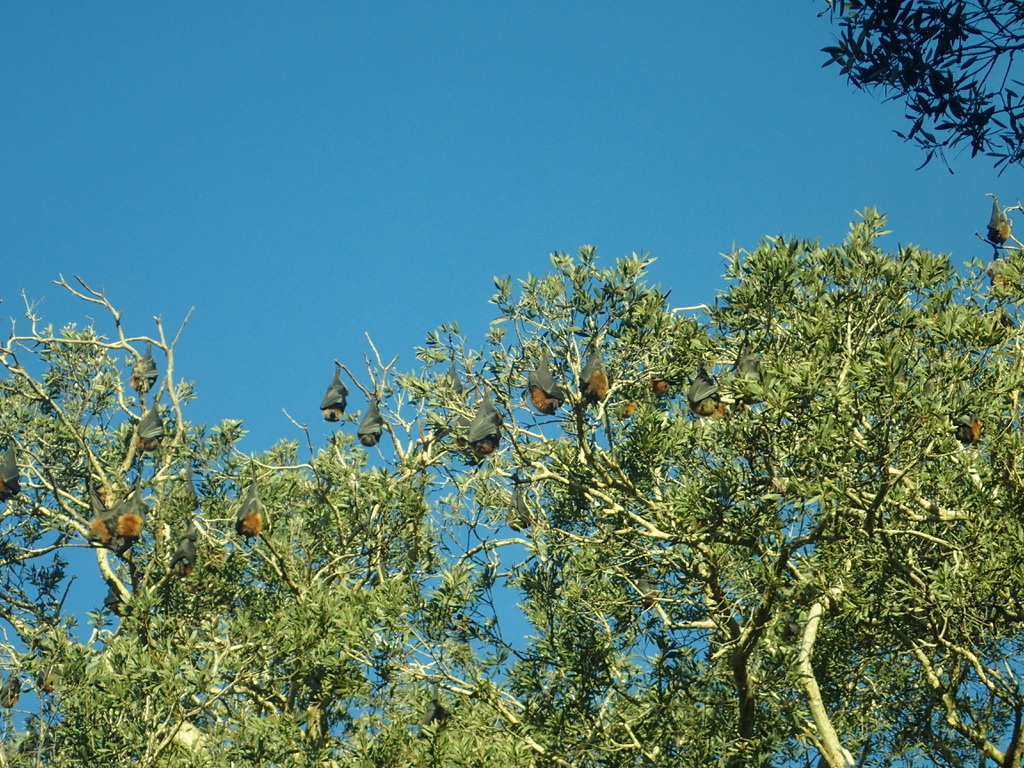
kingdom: Animalia
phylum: Chordata
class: Mammalia
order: Chiroptera
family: Pteropodidae
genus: Pteropus
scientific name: Pteropus poliocephalus
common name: Gray-headed flying fox
